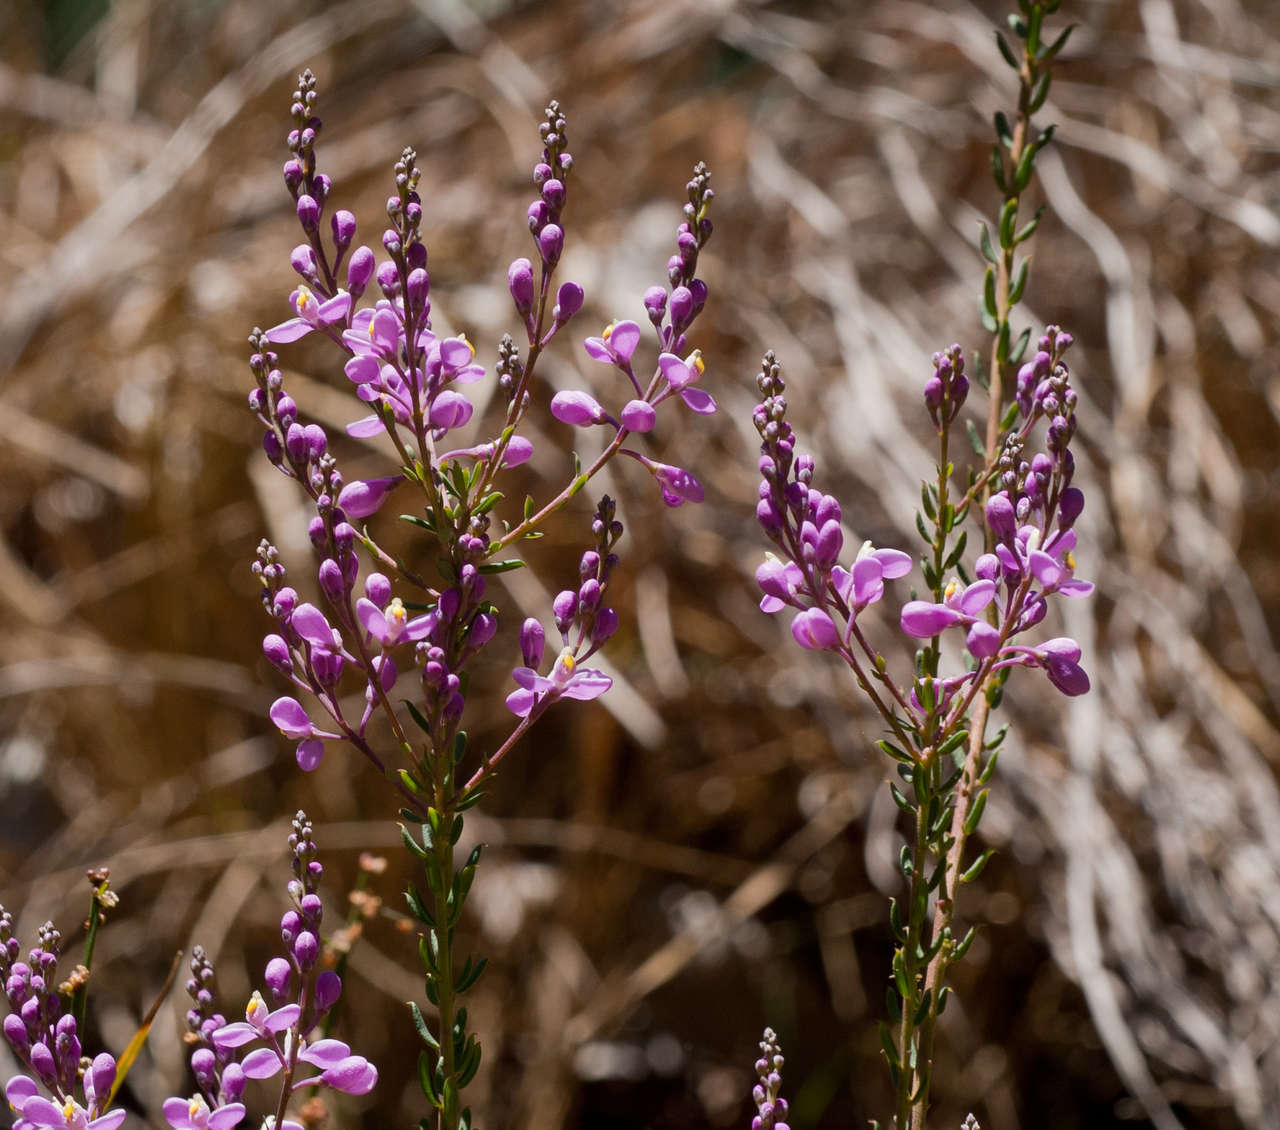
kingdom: Plantae
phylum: Tracheophyta
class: Magnoliopsida
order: Fabales
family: Polygalaceae
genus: Comesperma
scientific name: Comesperma ericinum
